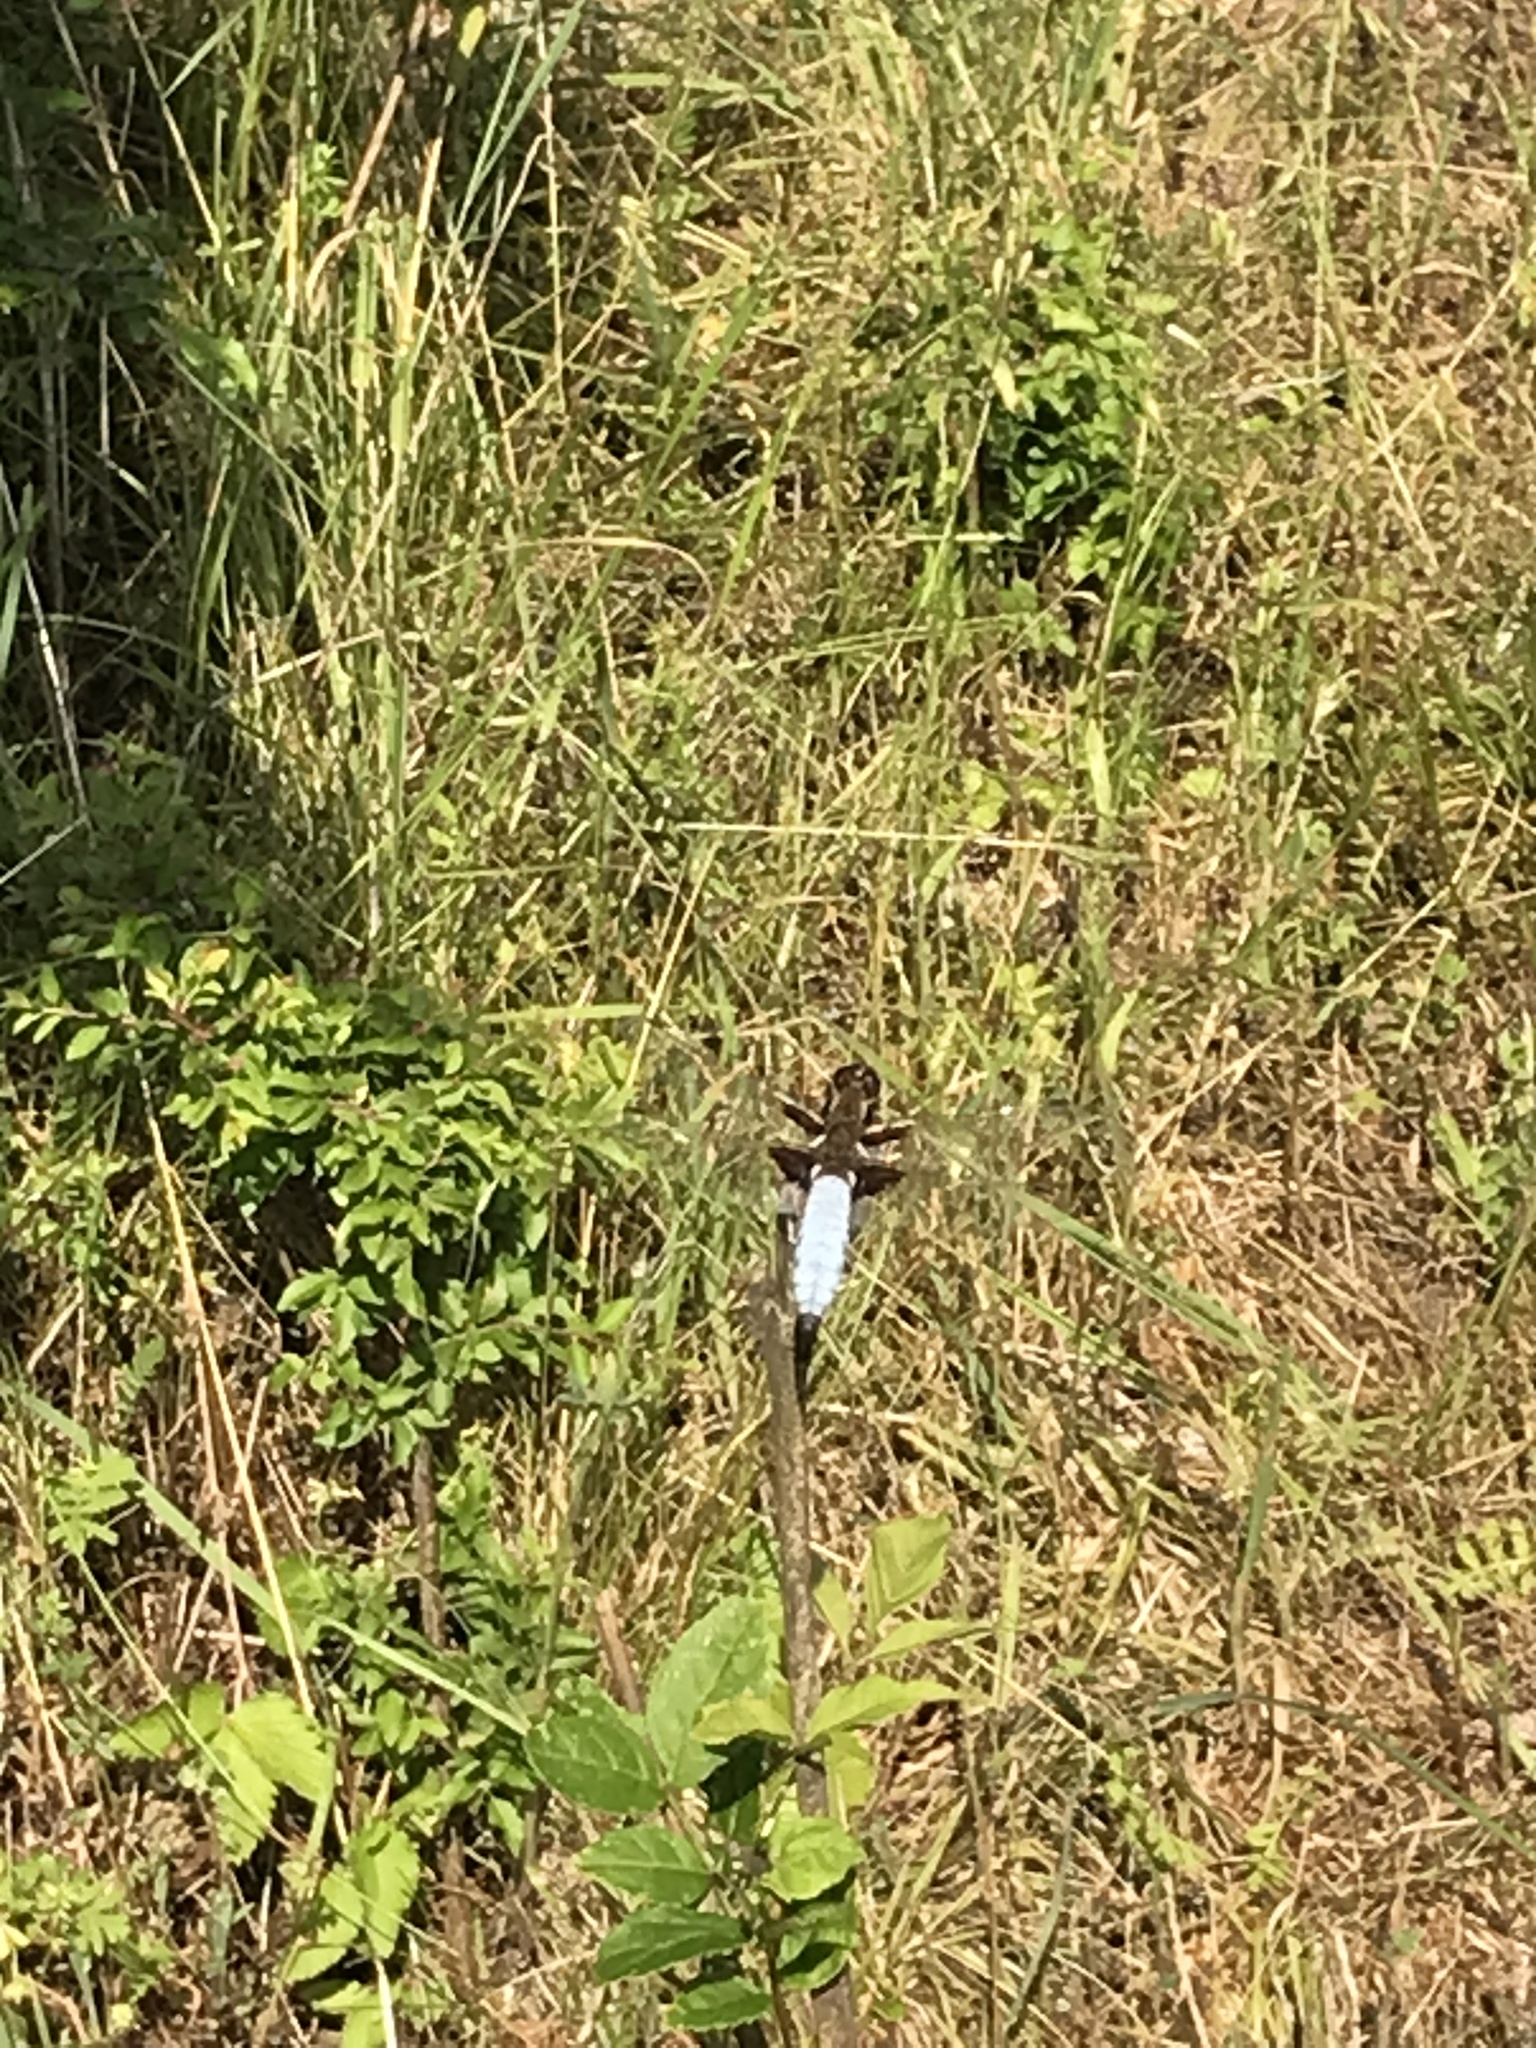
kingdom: Animalia
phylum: Arthropoda
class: Insecta
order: Odonata
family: Libellulidae
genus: Libellula
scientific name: Libellula depressa
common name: Broad-bodied chaser
